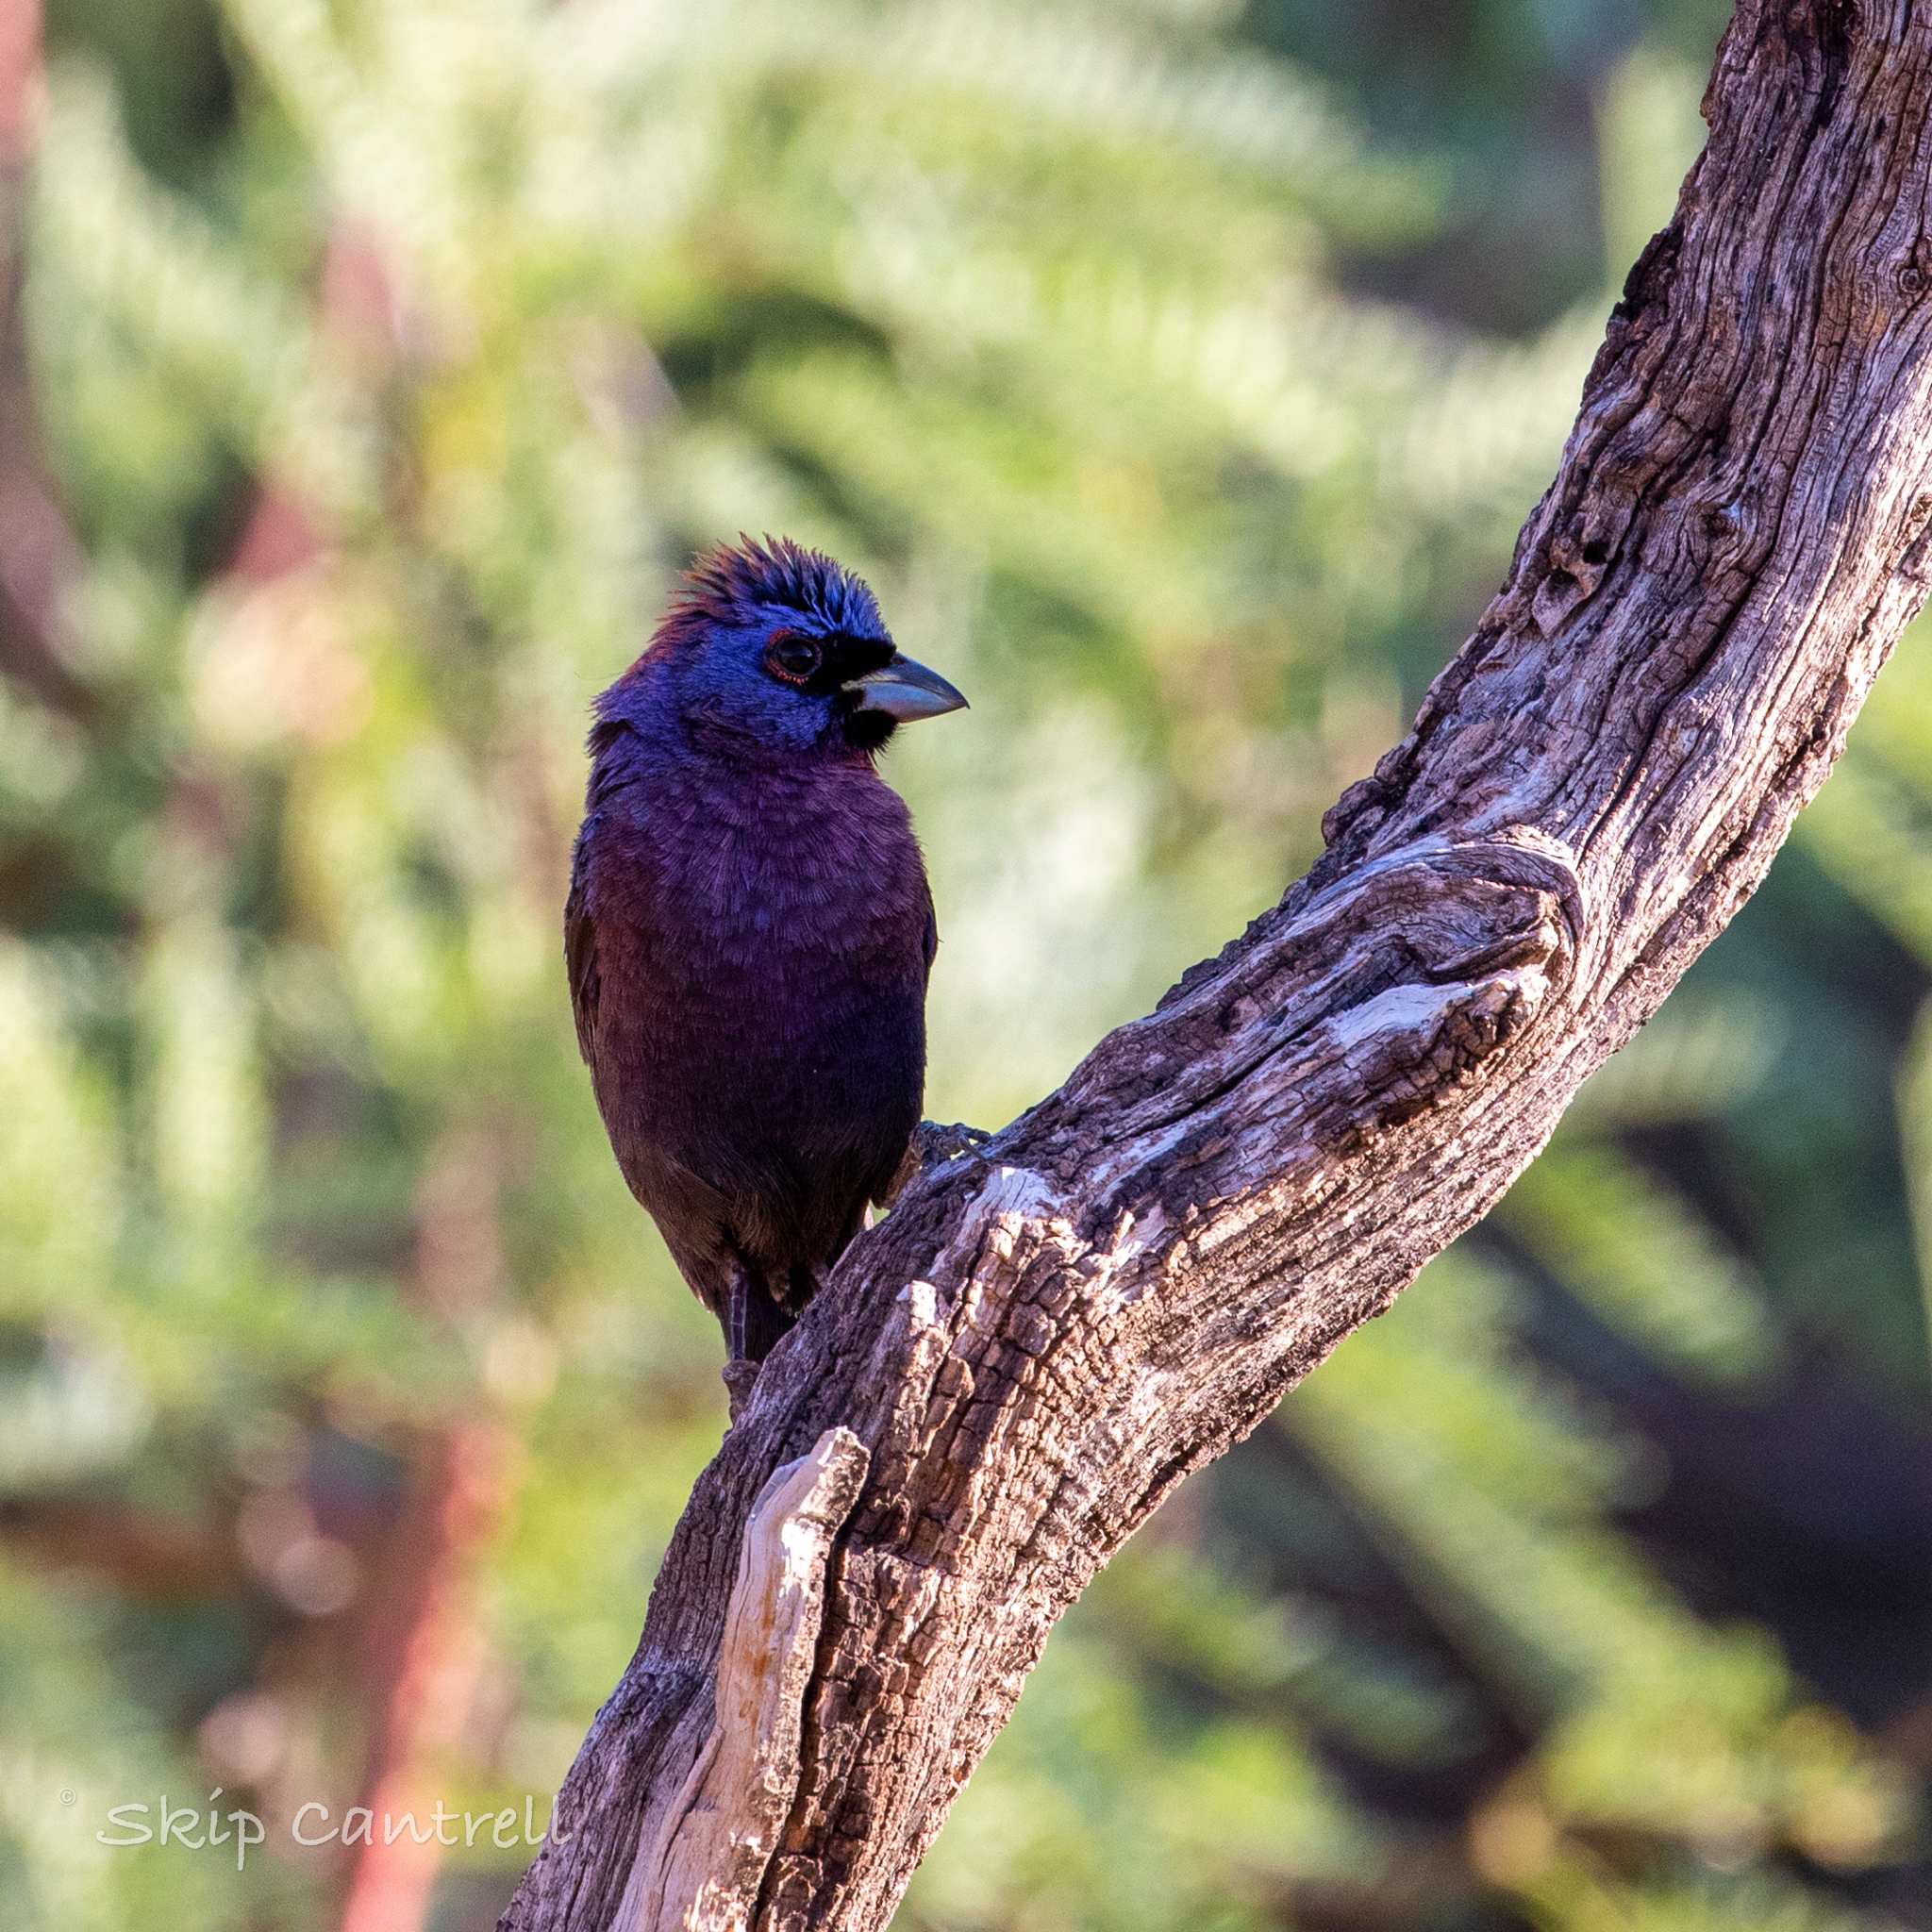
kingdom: Animalia
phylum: Chordata
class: Aves
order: Passeriformes
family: Cardinalidae
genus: Passerina
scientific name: Passerina versicolor
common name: Varied bunting
